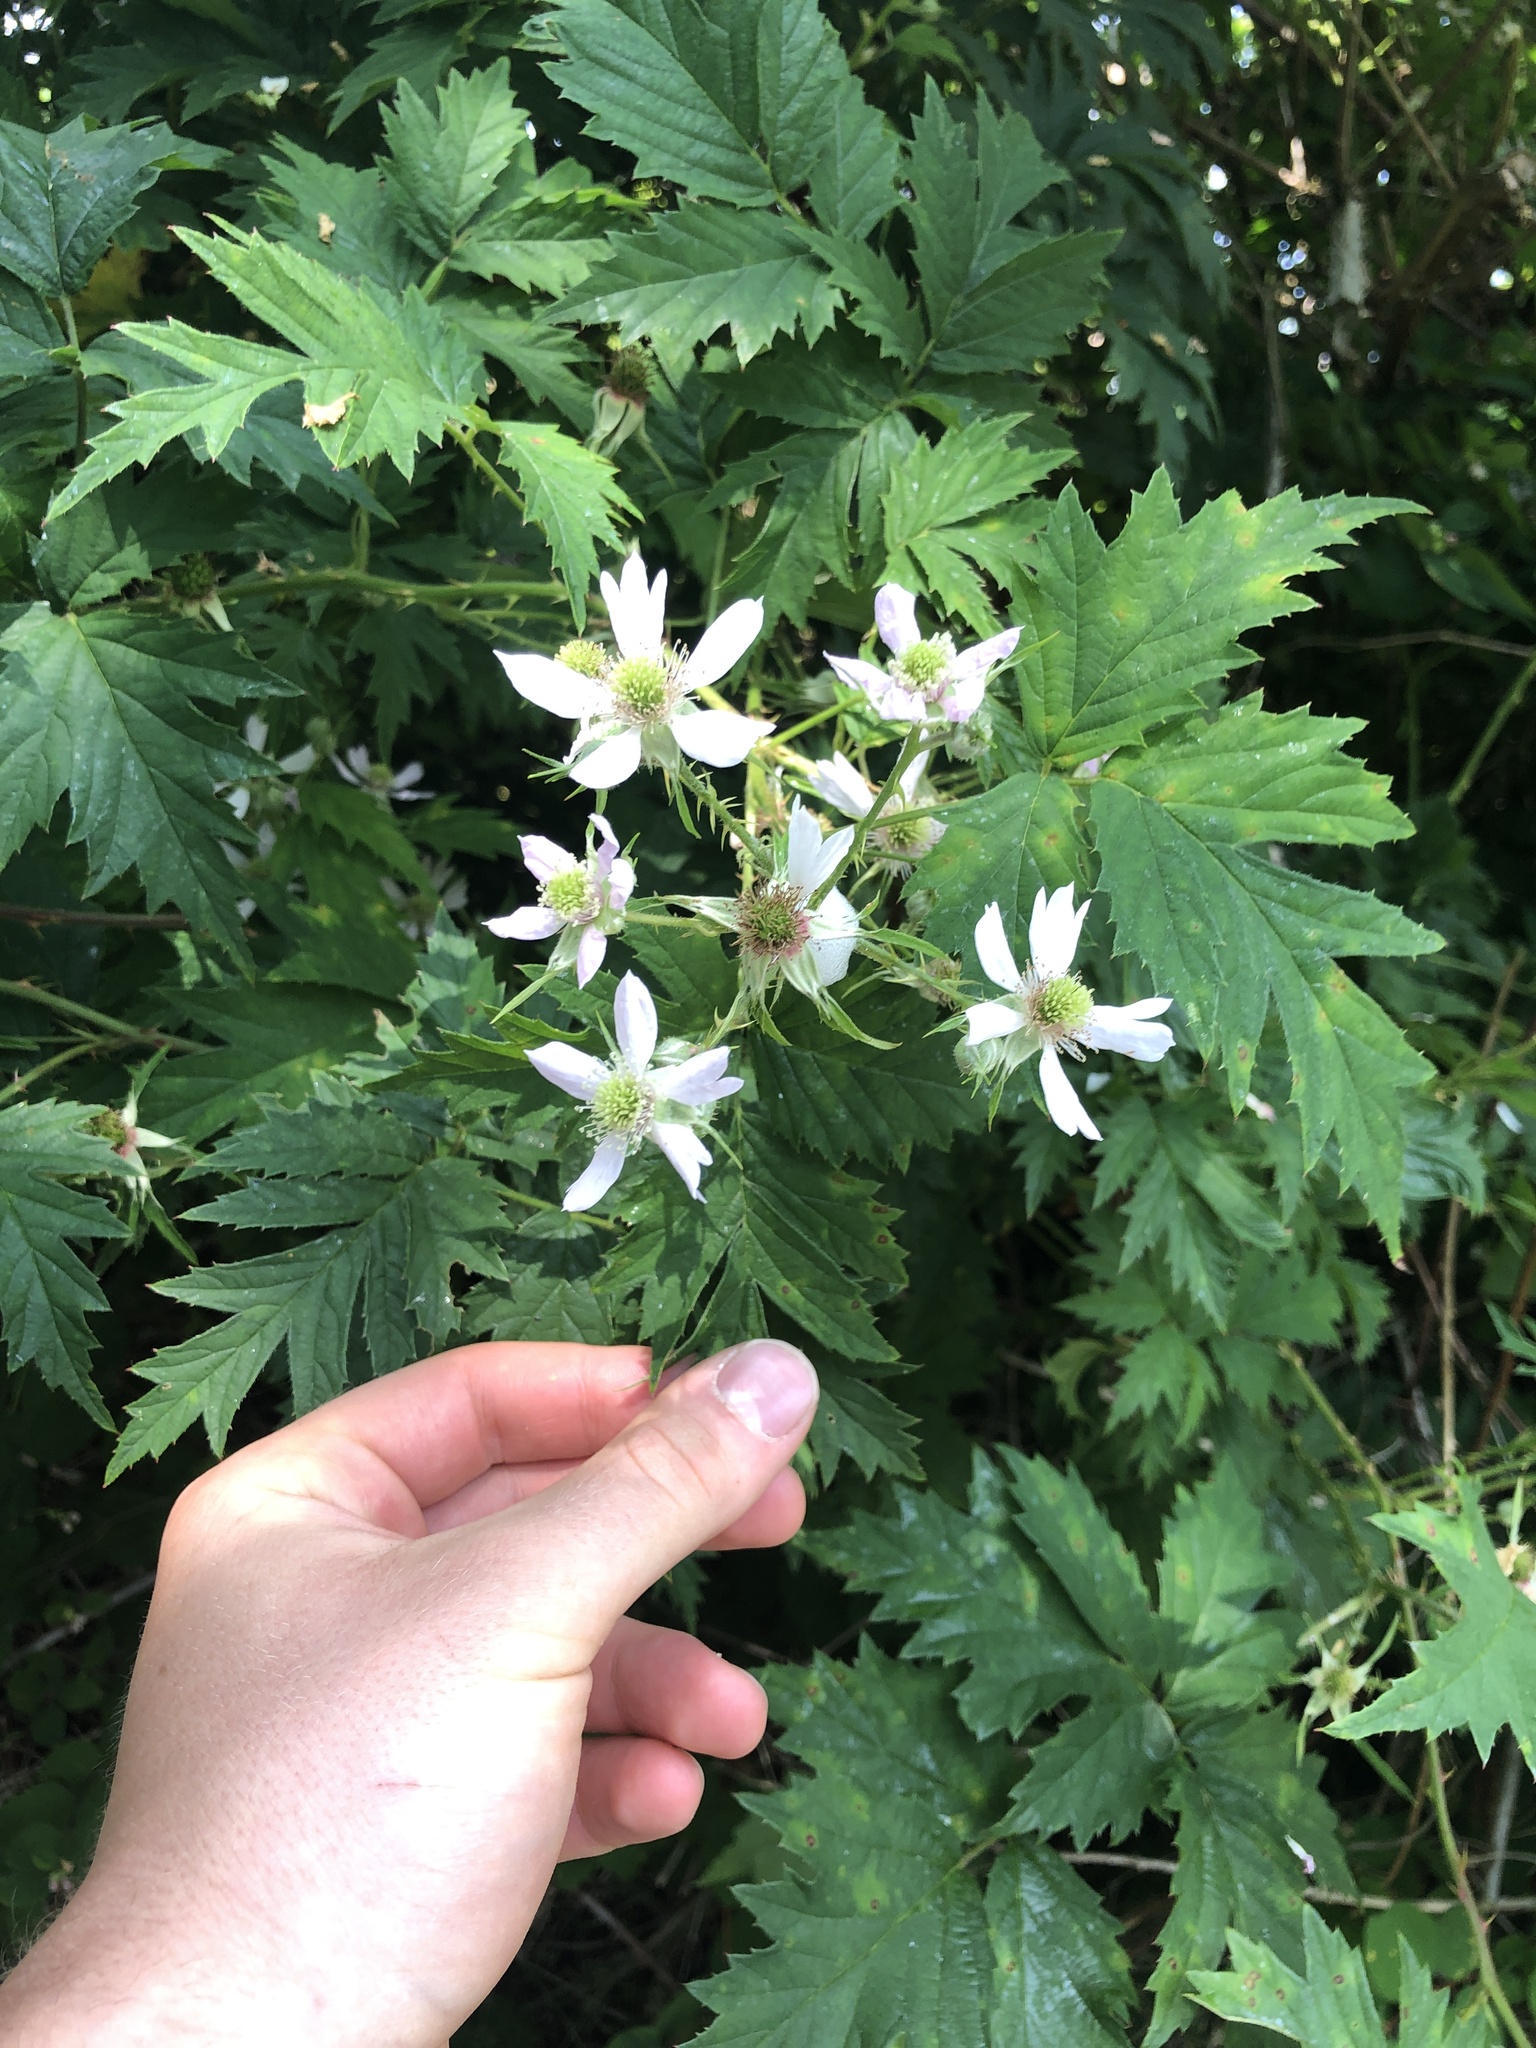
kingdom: Plantae
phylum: Tracheophyta
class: Magnoliopsida
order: Rosales
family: Rosaceae
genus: Rubus
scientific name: Rubus laciniatus
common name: Evergreen blackberry
